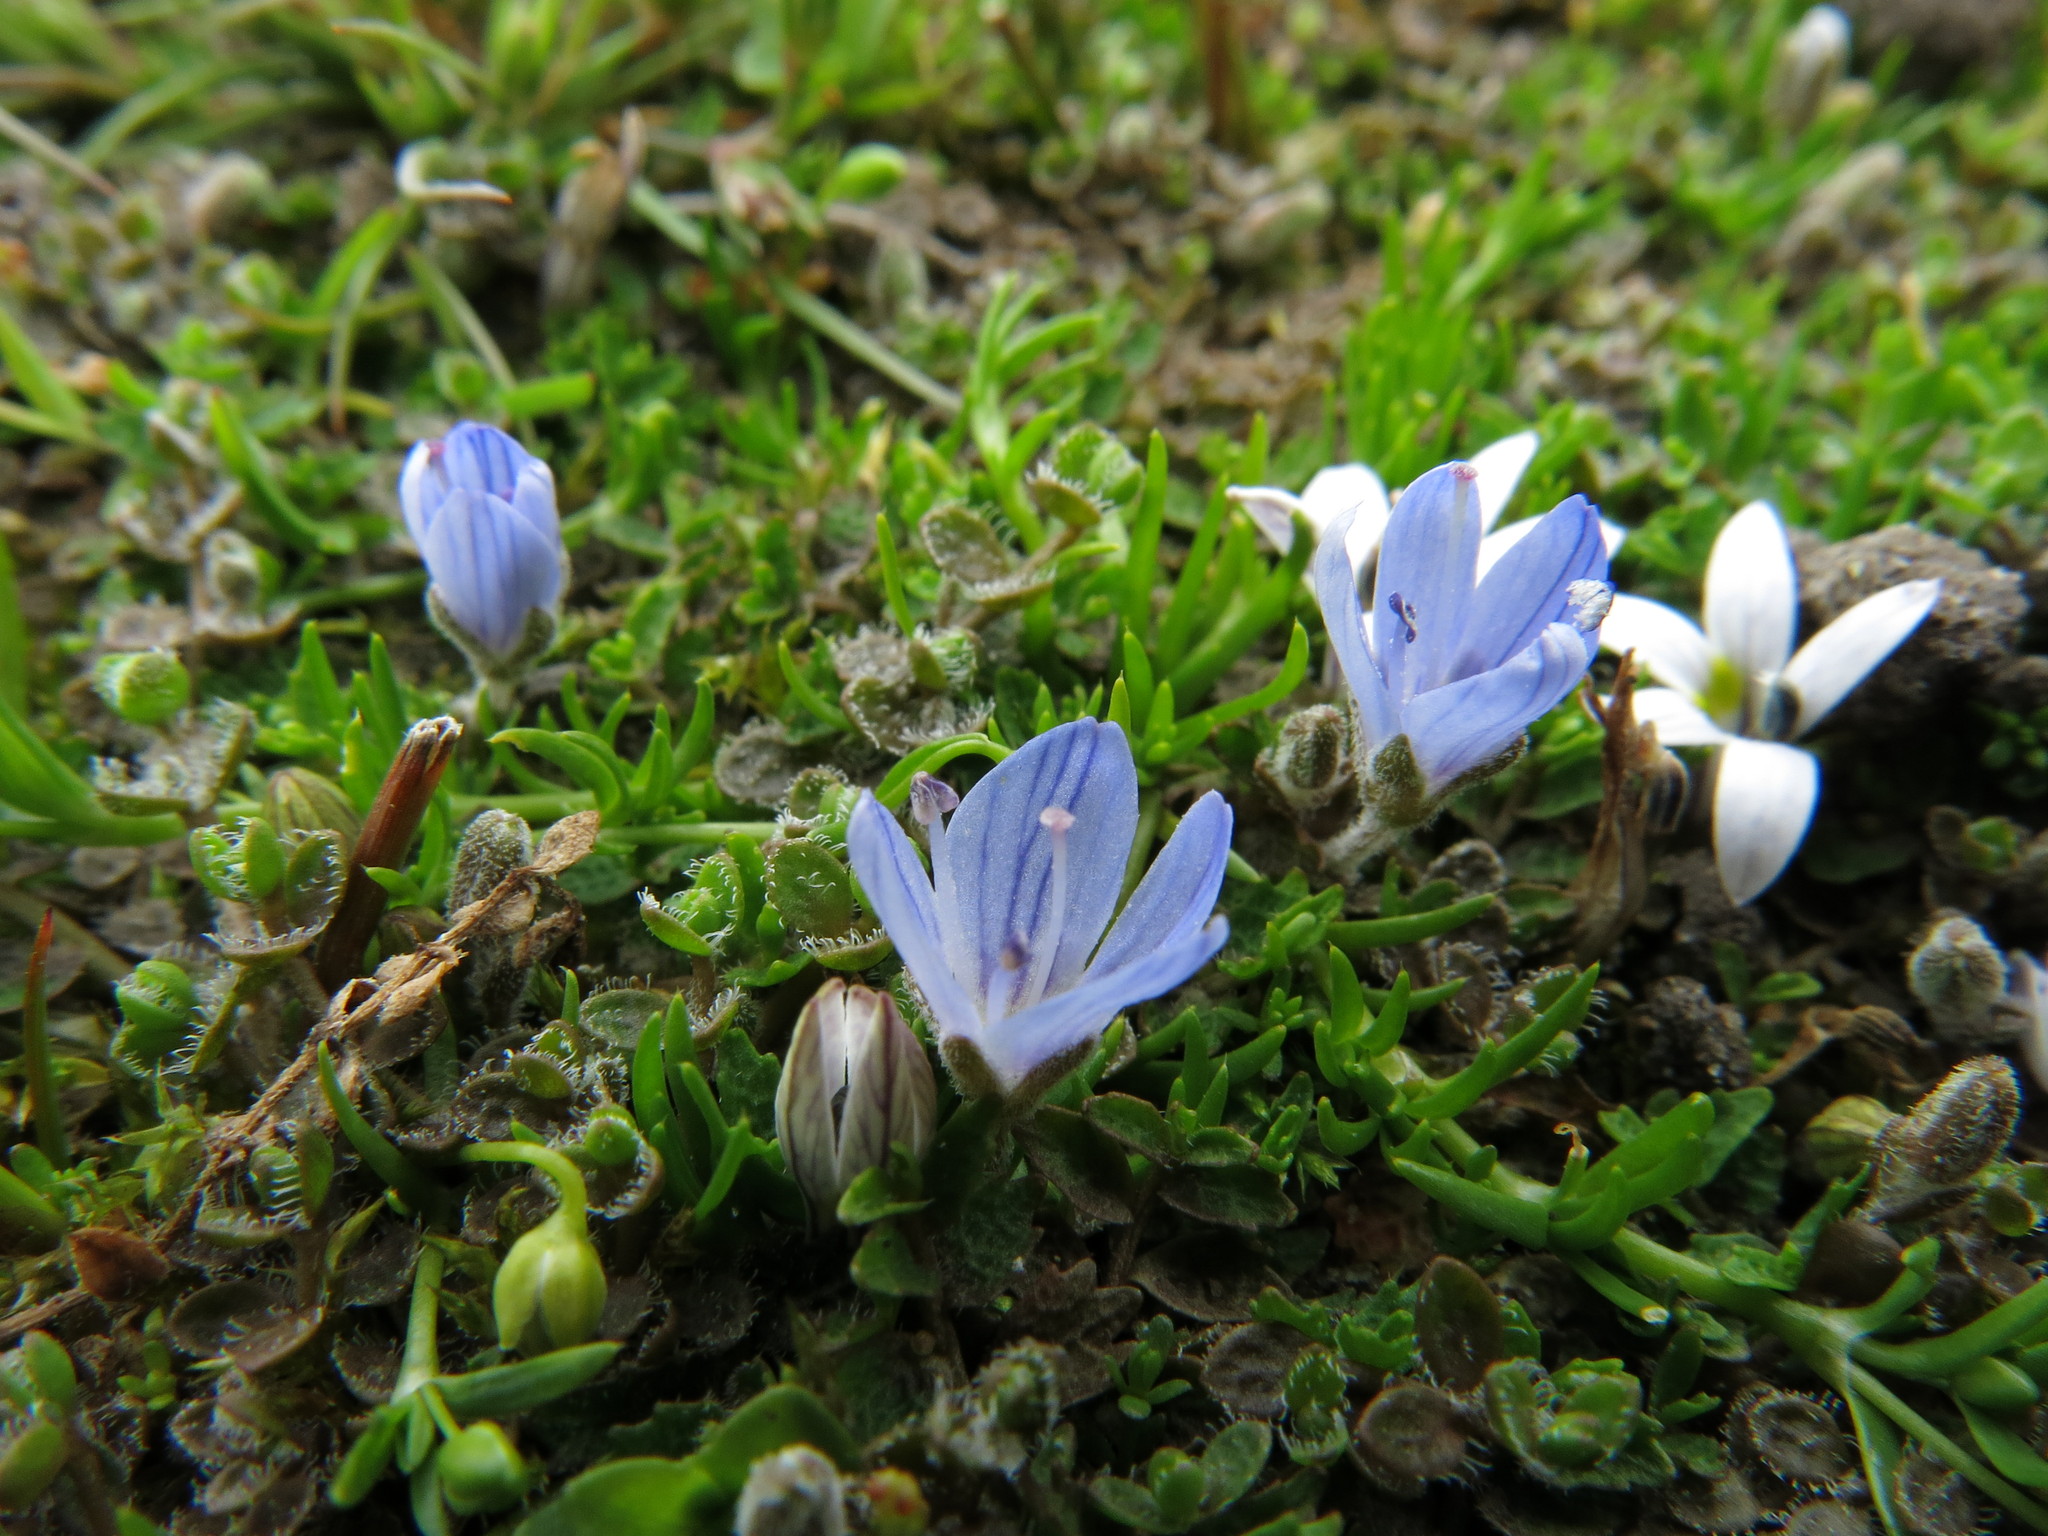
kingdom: Plantae
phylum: Tracheophyta
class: Magnoliopsida
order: Lamiales
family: Plantaginaceae
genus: Veronica
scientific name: Veronica lilliputiana
